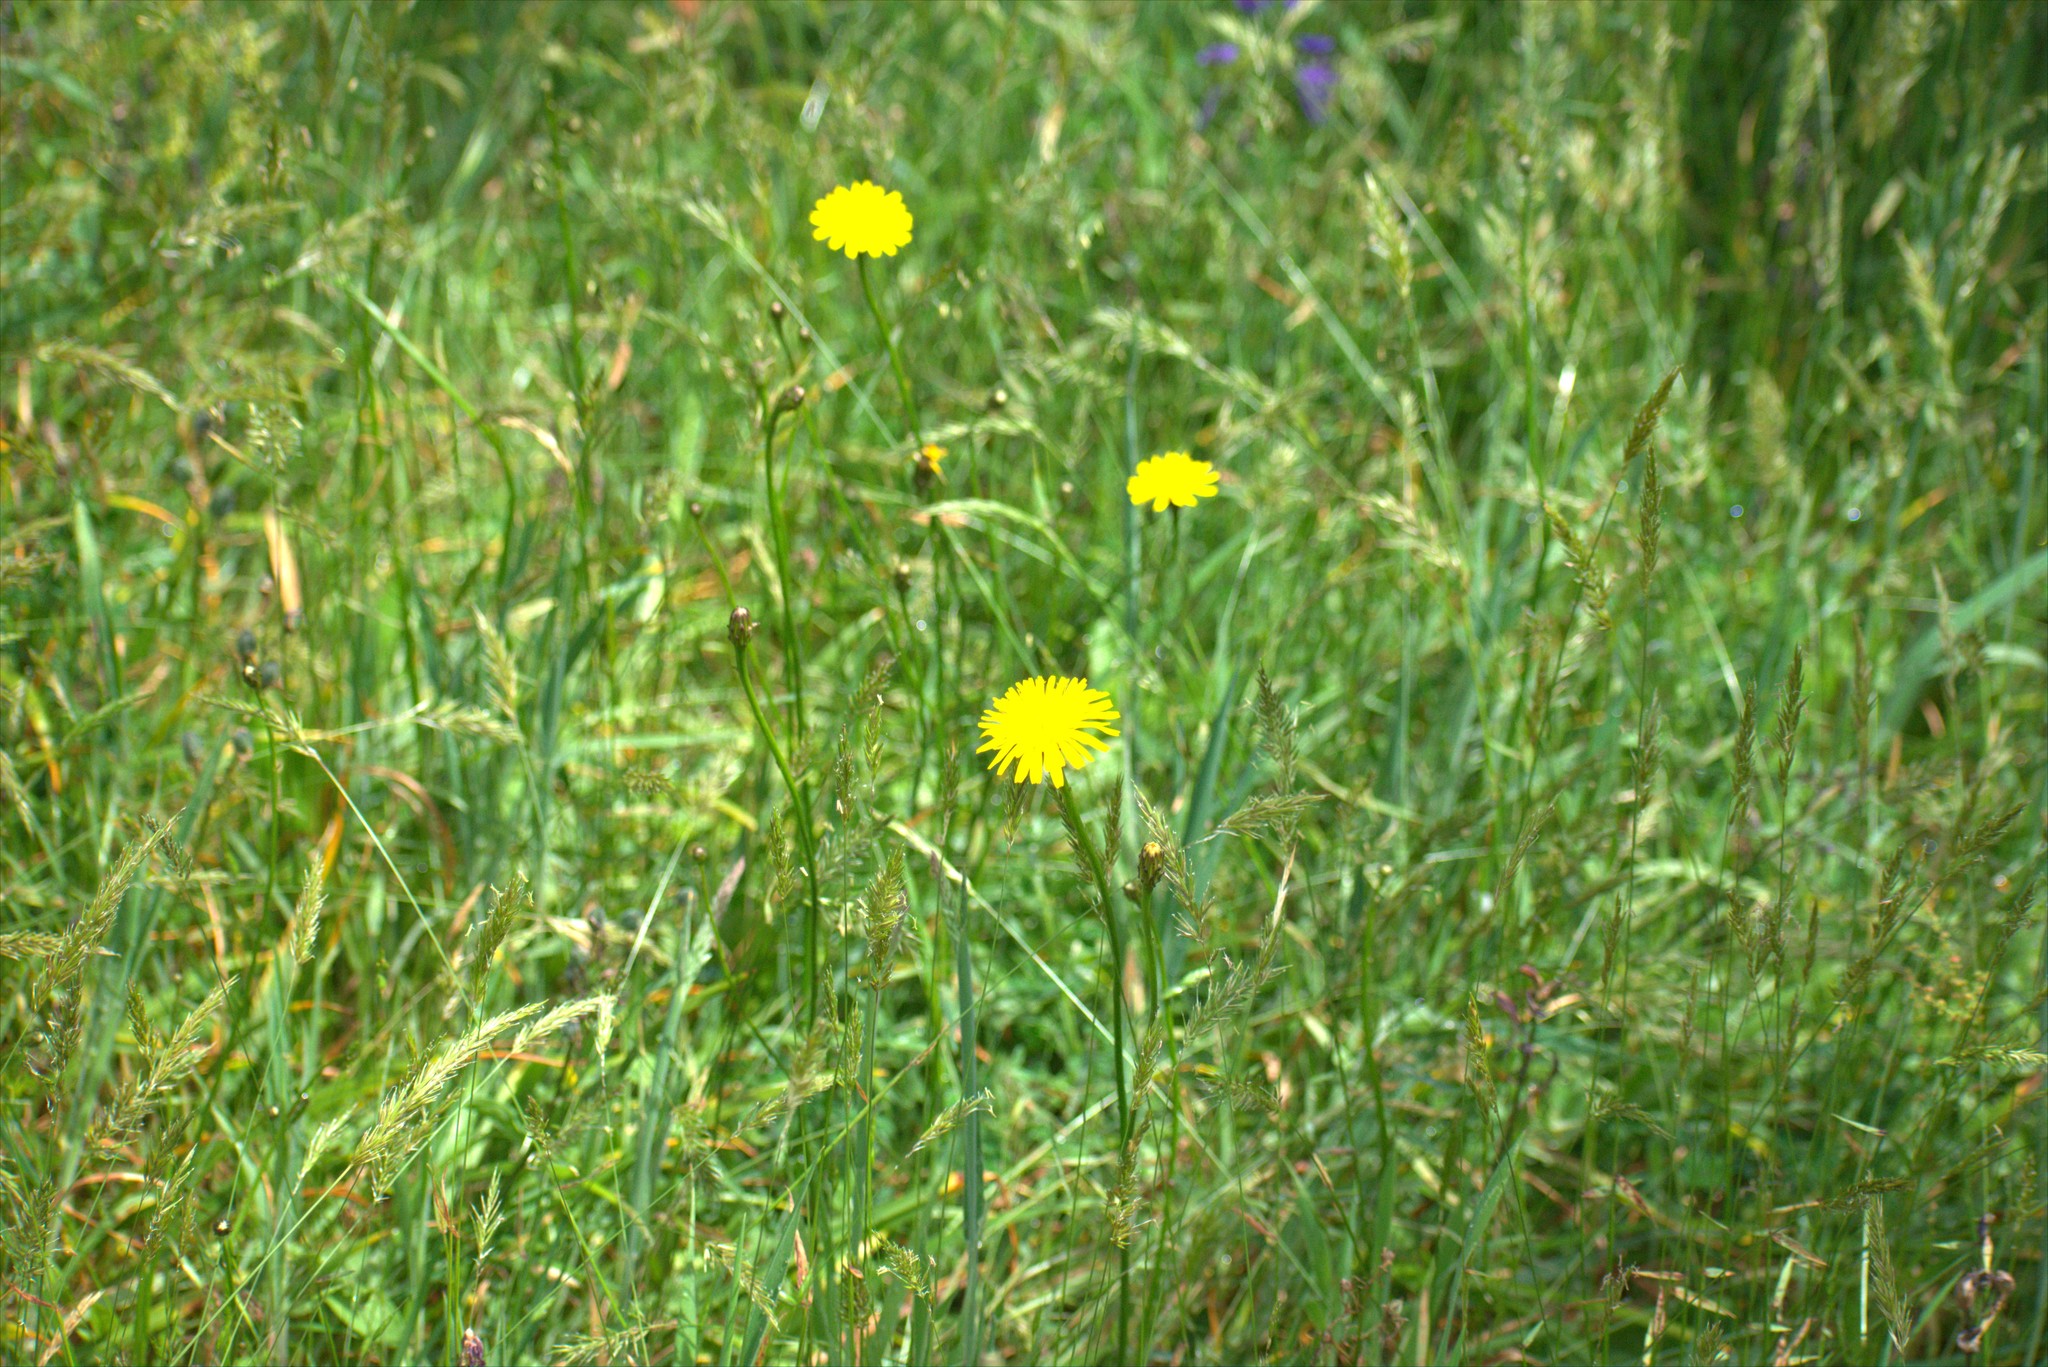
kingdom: Plantae
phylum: Tracheophyta
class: Magnoliopsida
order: Asterales
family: Asteraceae
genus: Hypochaeris
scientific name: Hypochaeris radicata
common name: Flatweed
